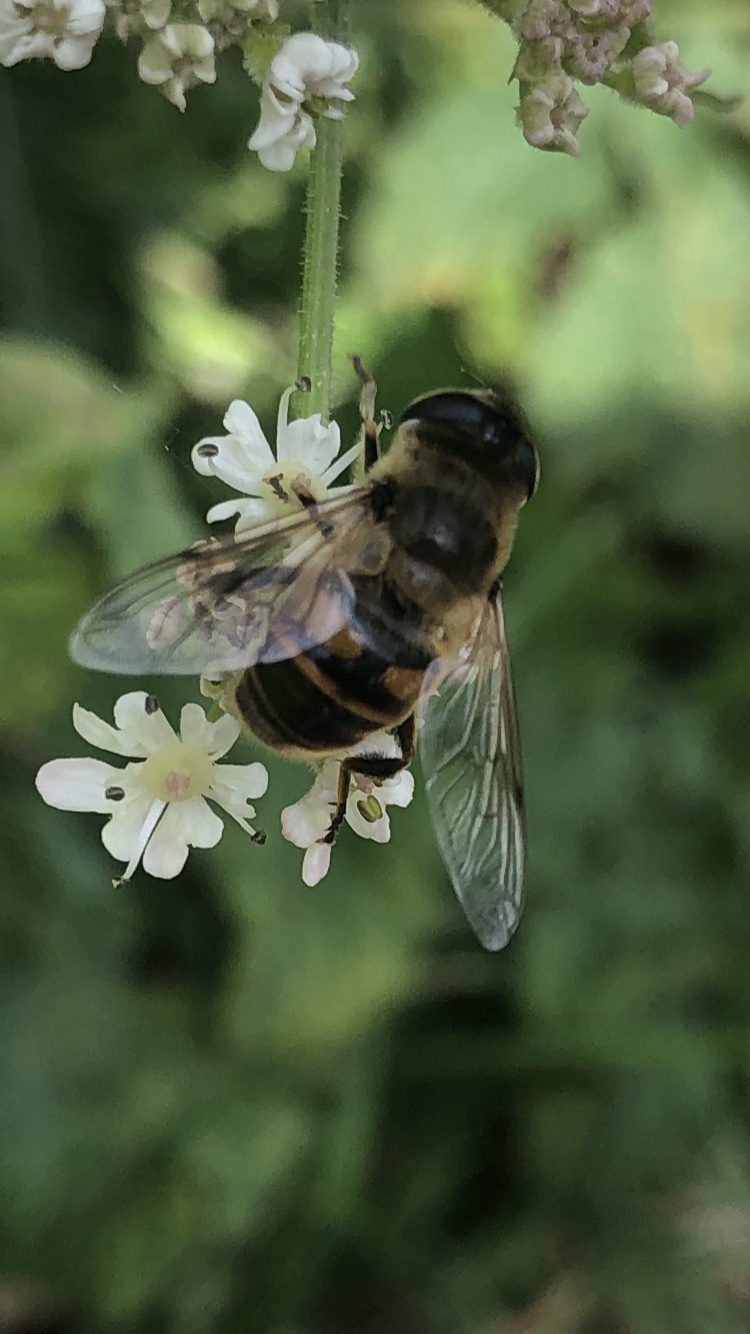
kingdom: Animalia
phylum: Arthropoda
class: Insecta
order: Diptera
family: Syrphidae
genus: Eristalis
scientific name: Eristalis tenax
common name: Drone fly
